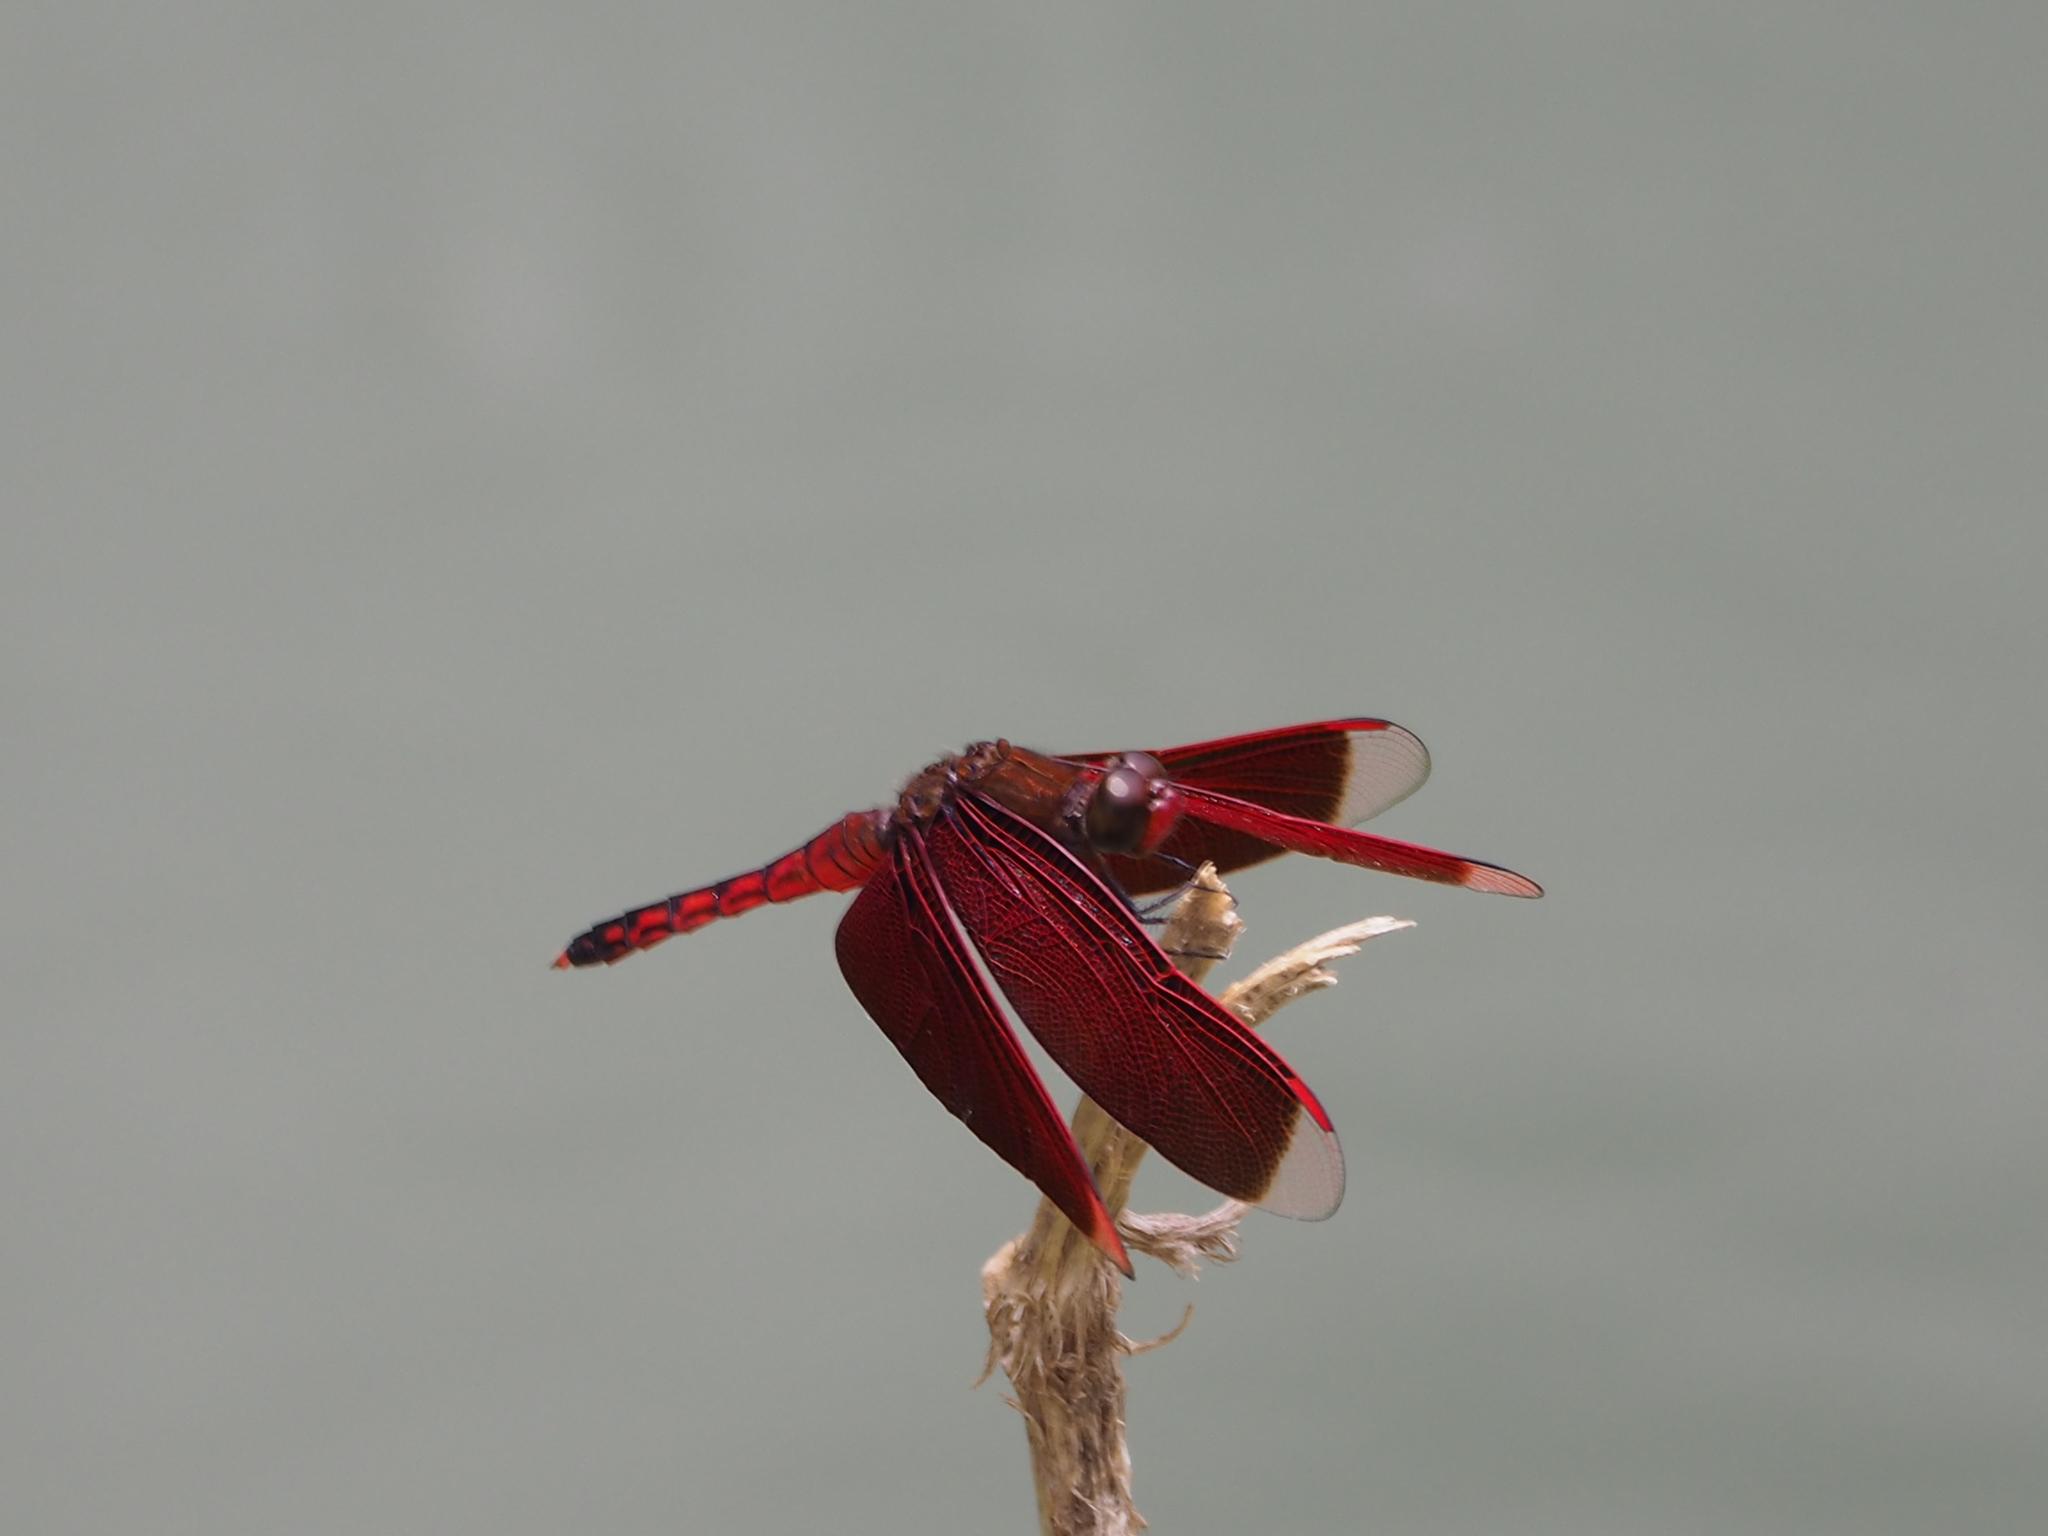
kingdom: Animalia
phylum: Arthropoda
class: Insecta
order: Odonata
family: Libellulidae
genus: Neurothemis
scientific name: Neurothemis taiwanensis
